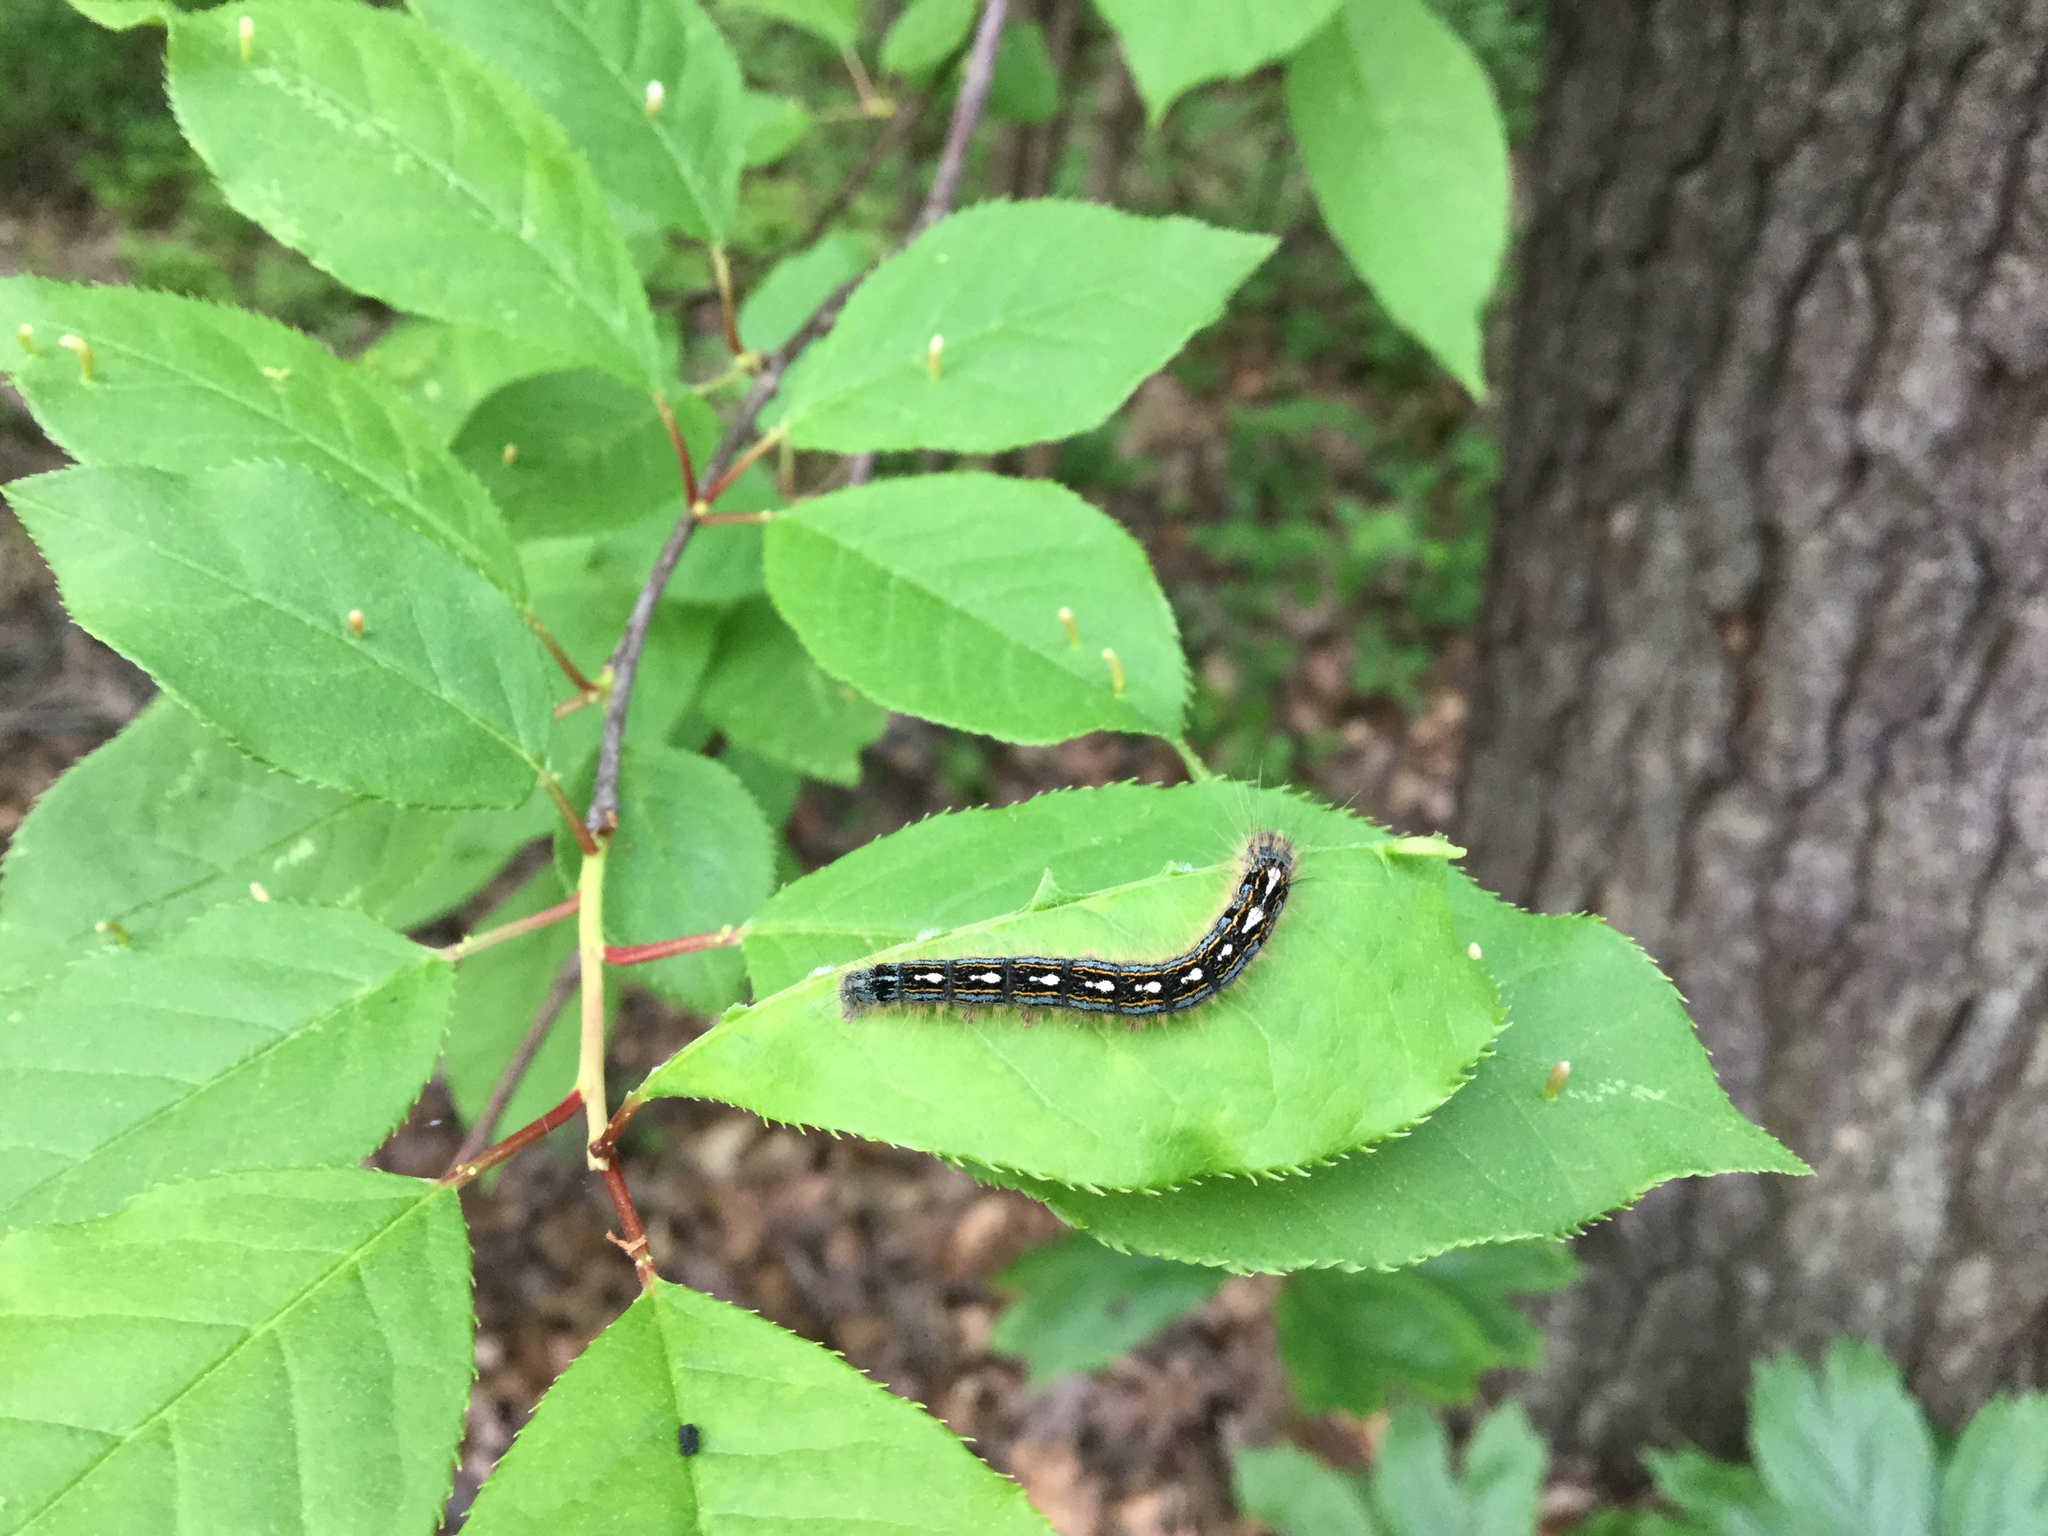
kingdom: Animalia
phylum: Arthropoda
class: Insecta
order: Lepidoptera
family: Lasiocampidae
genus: Malacosoma
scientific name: Malacosoma disstria
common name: Forest tent caterpillar
